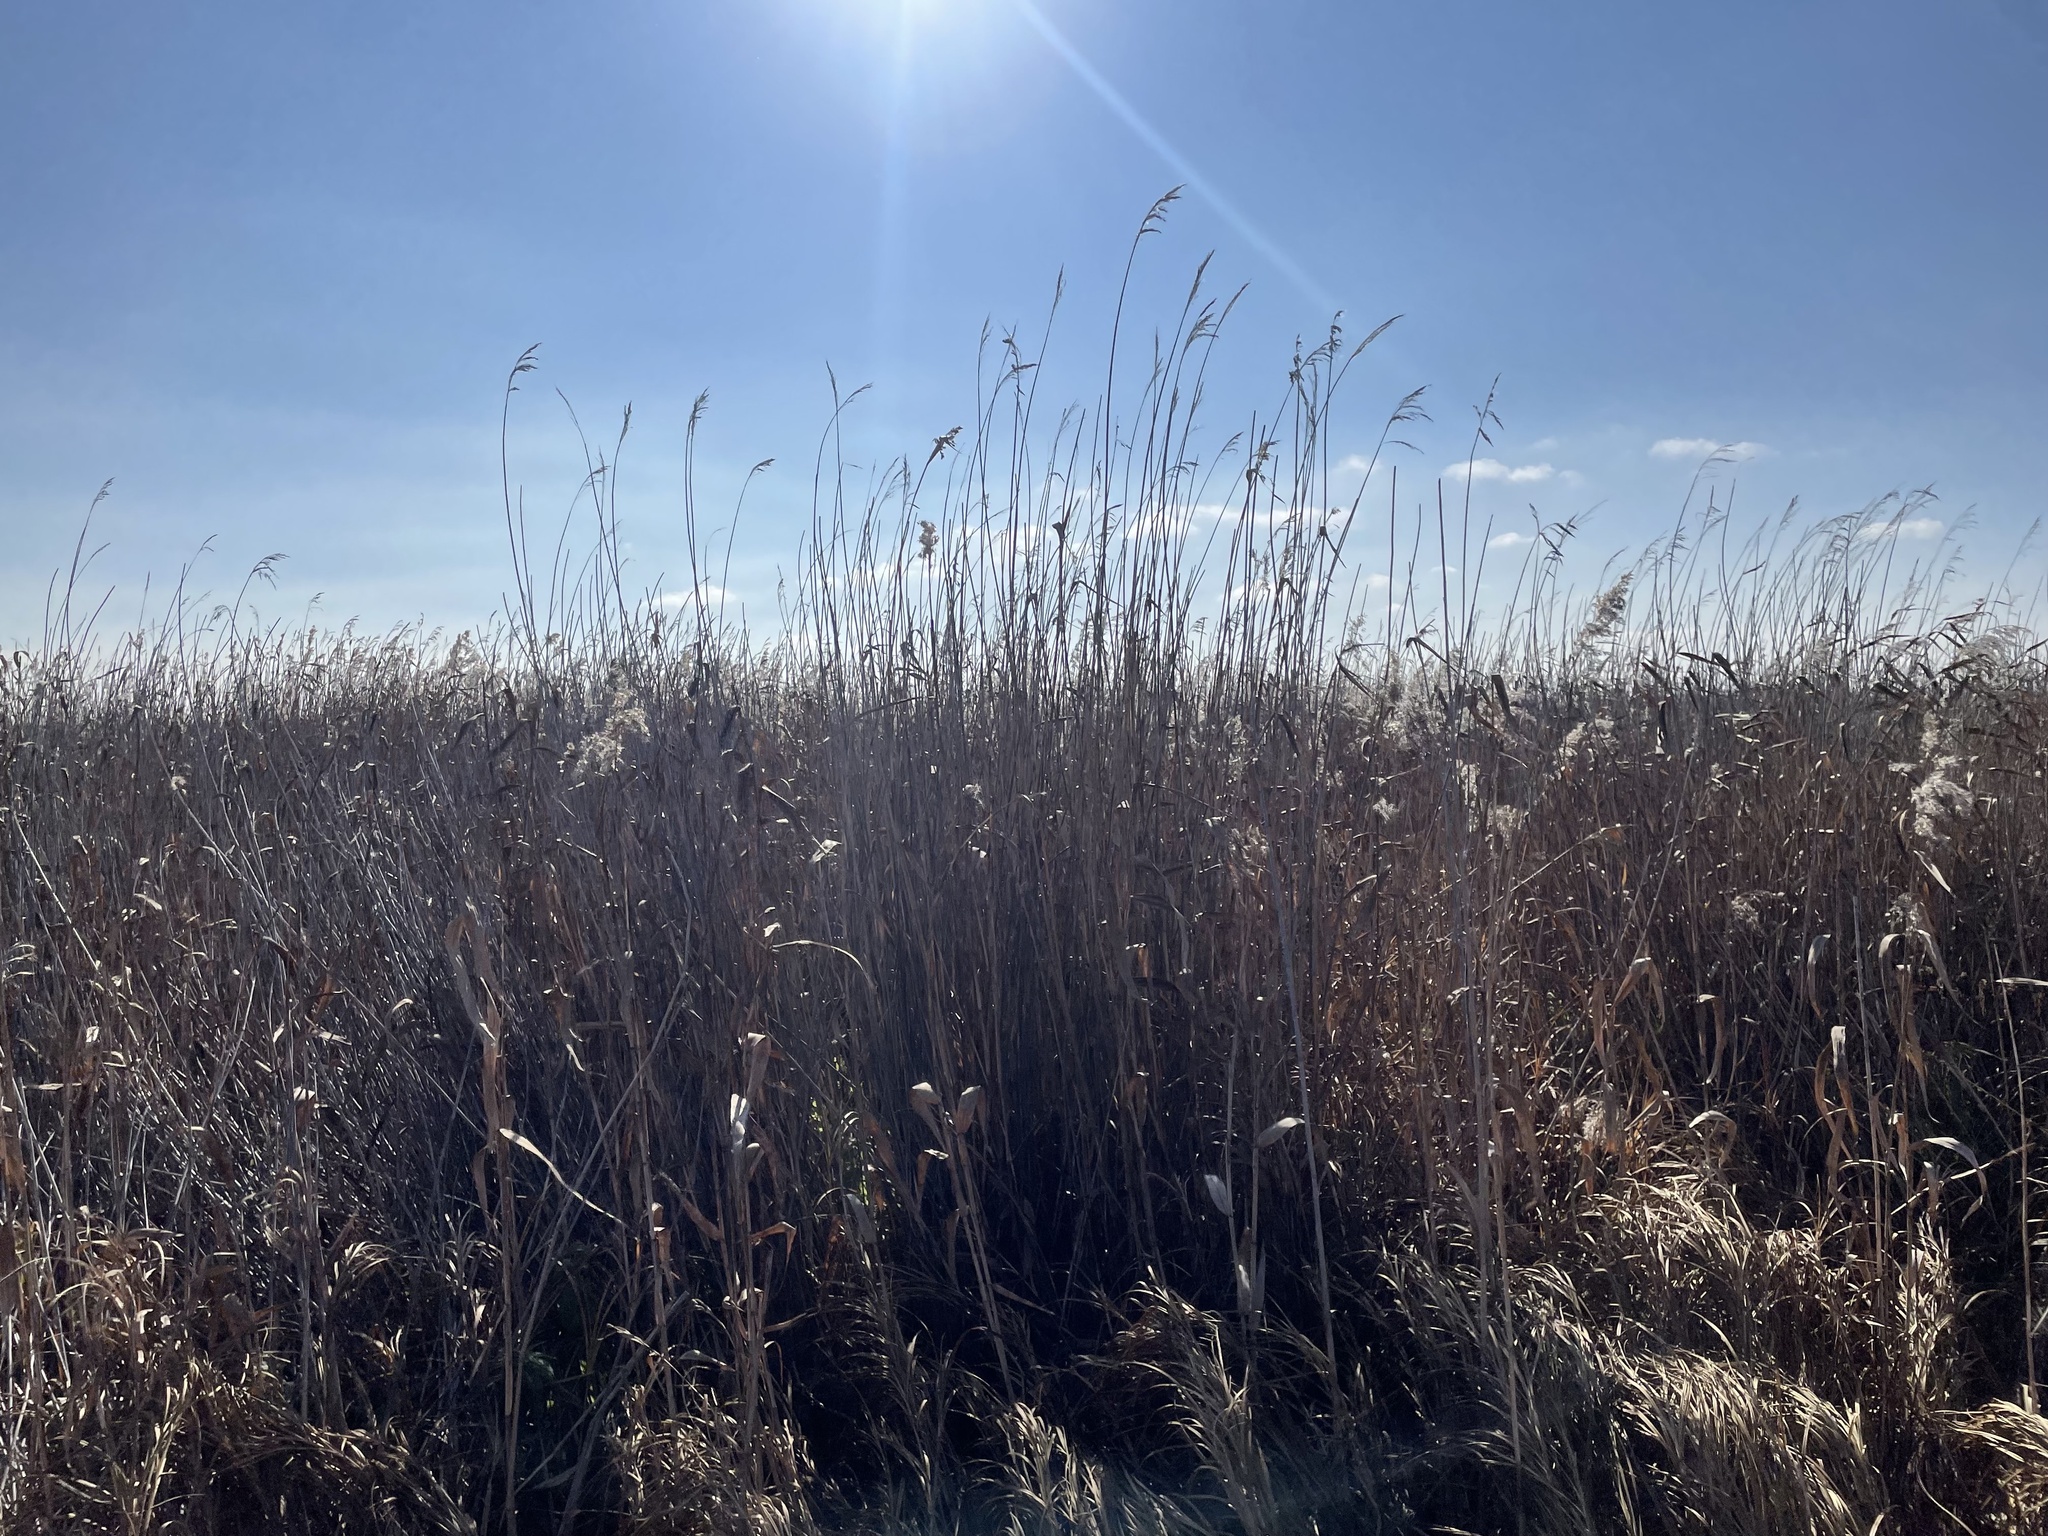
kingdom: Plantae
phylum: Tracheophyta
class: Liliopsida
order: Poales
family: Poaceae
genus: Phragmites
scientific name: Phragmites australis
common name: Common reed
